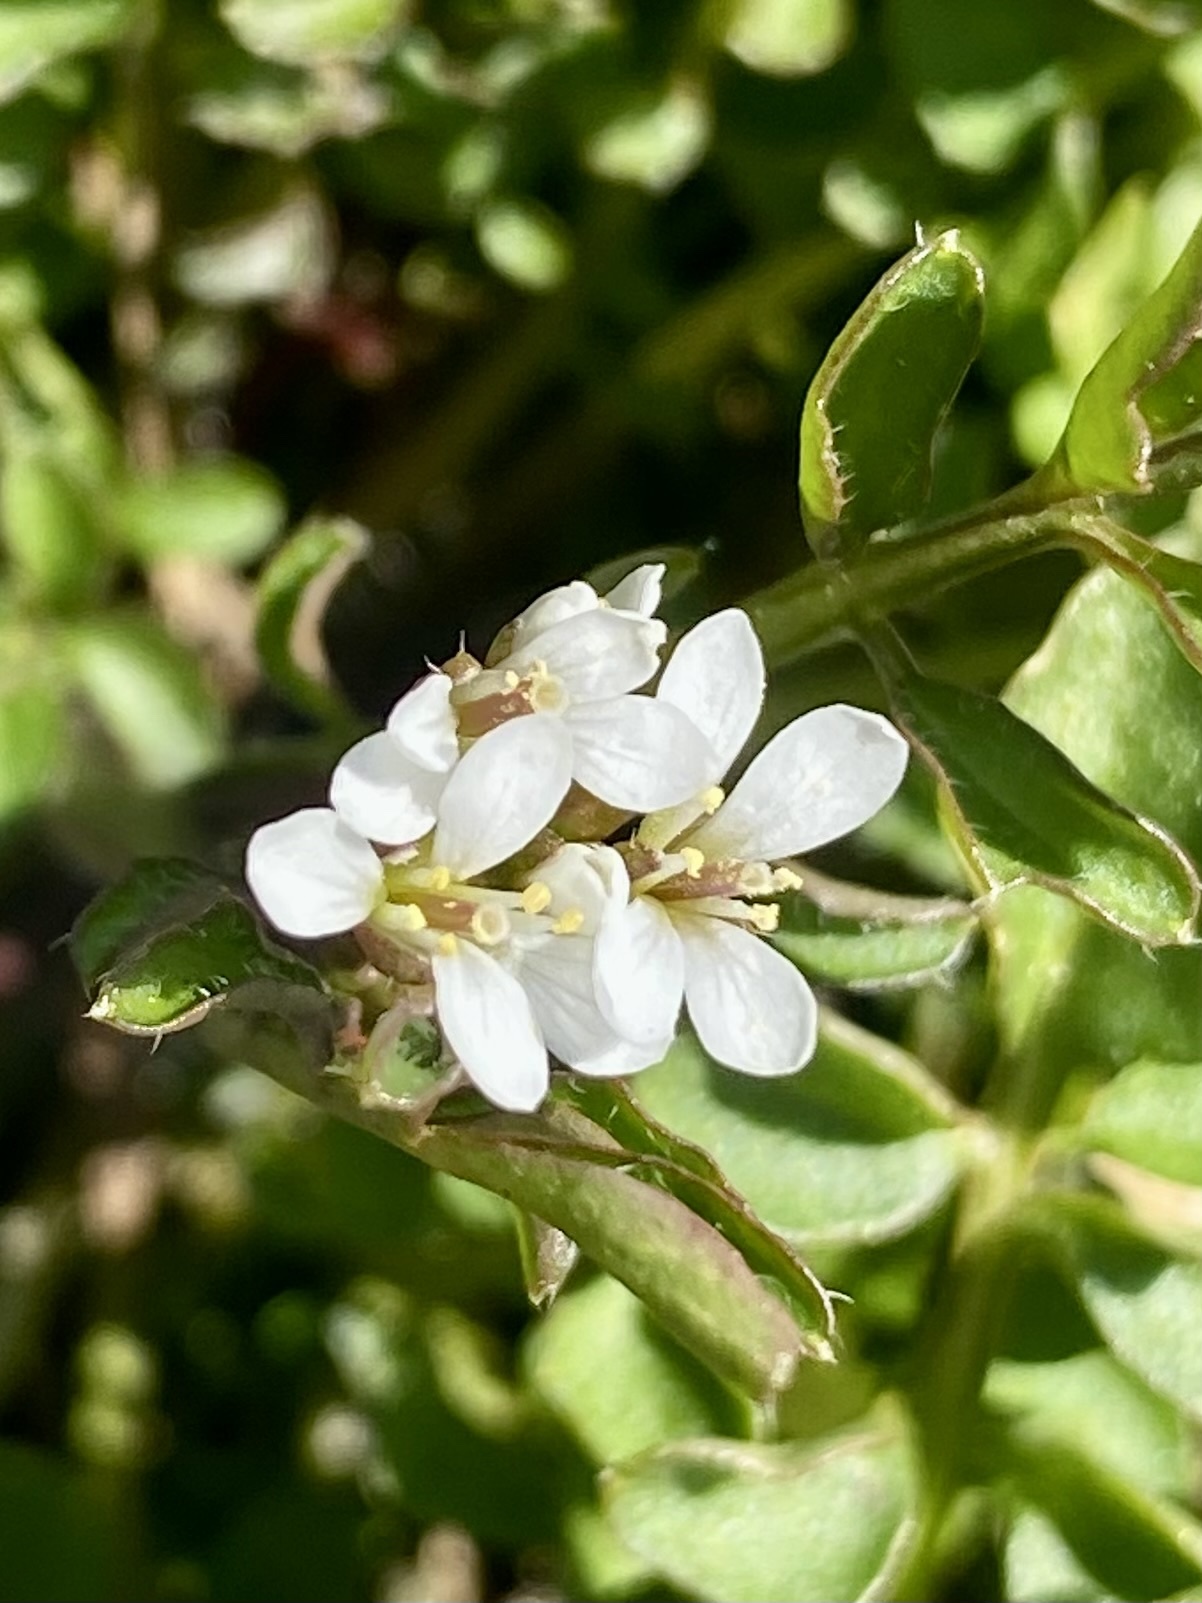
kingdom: Plantae
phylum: Tracheophyta
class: Magnoliopsida
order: Brassicales
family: Brassicaceae
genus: Cardamine
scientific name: Cardamine hirsuta
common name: Hairy bittercress
